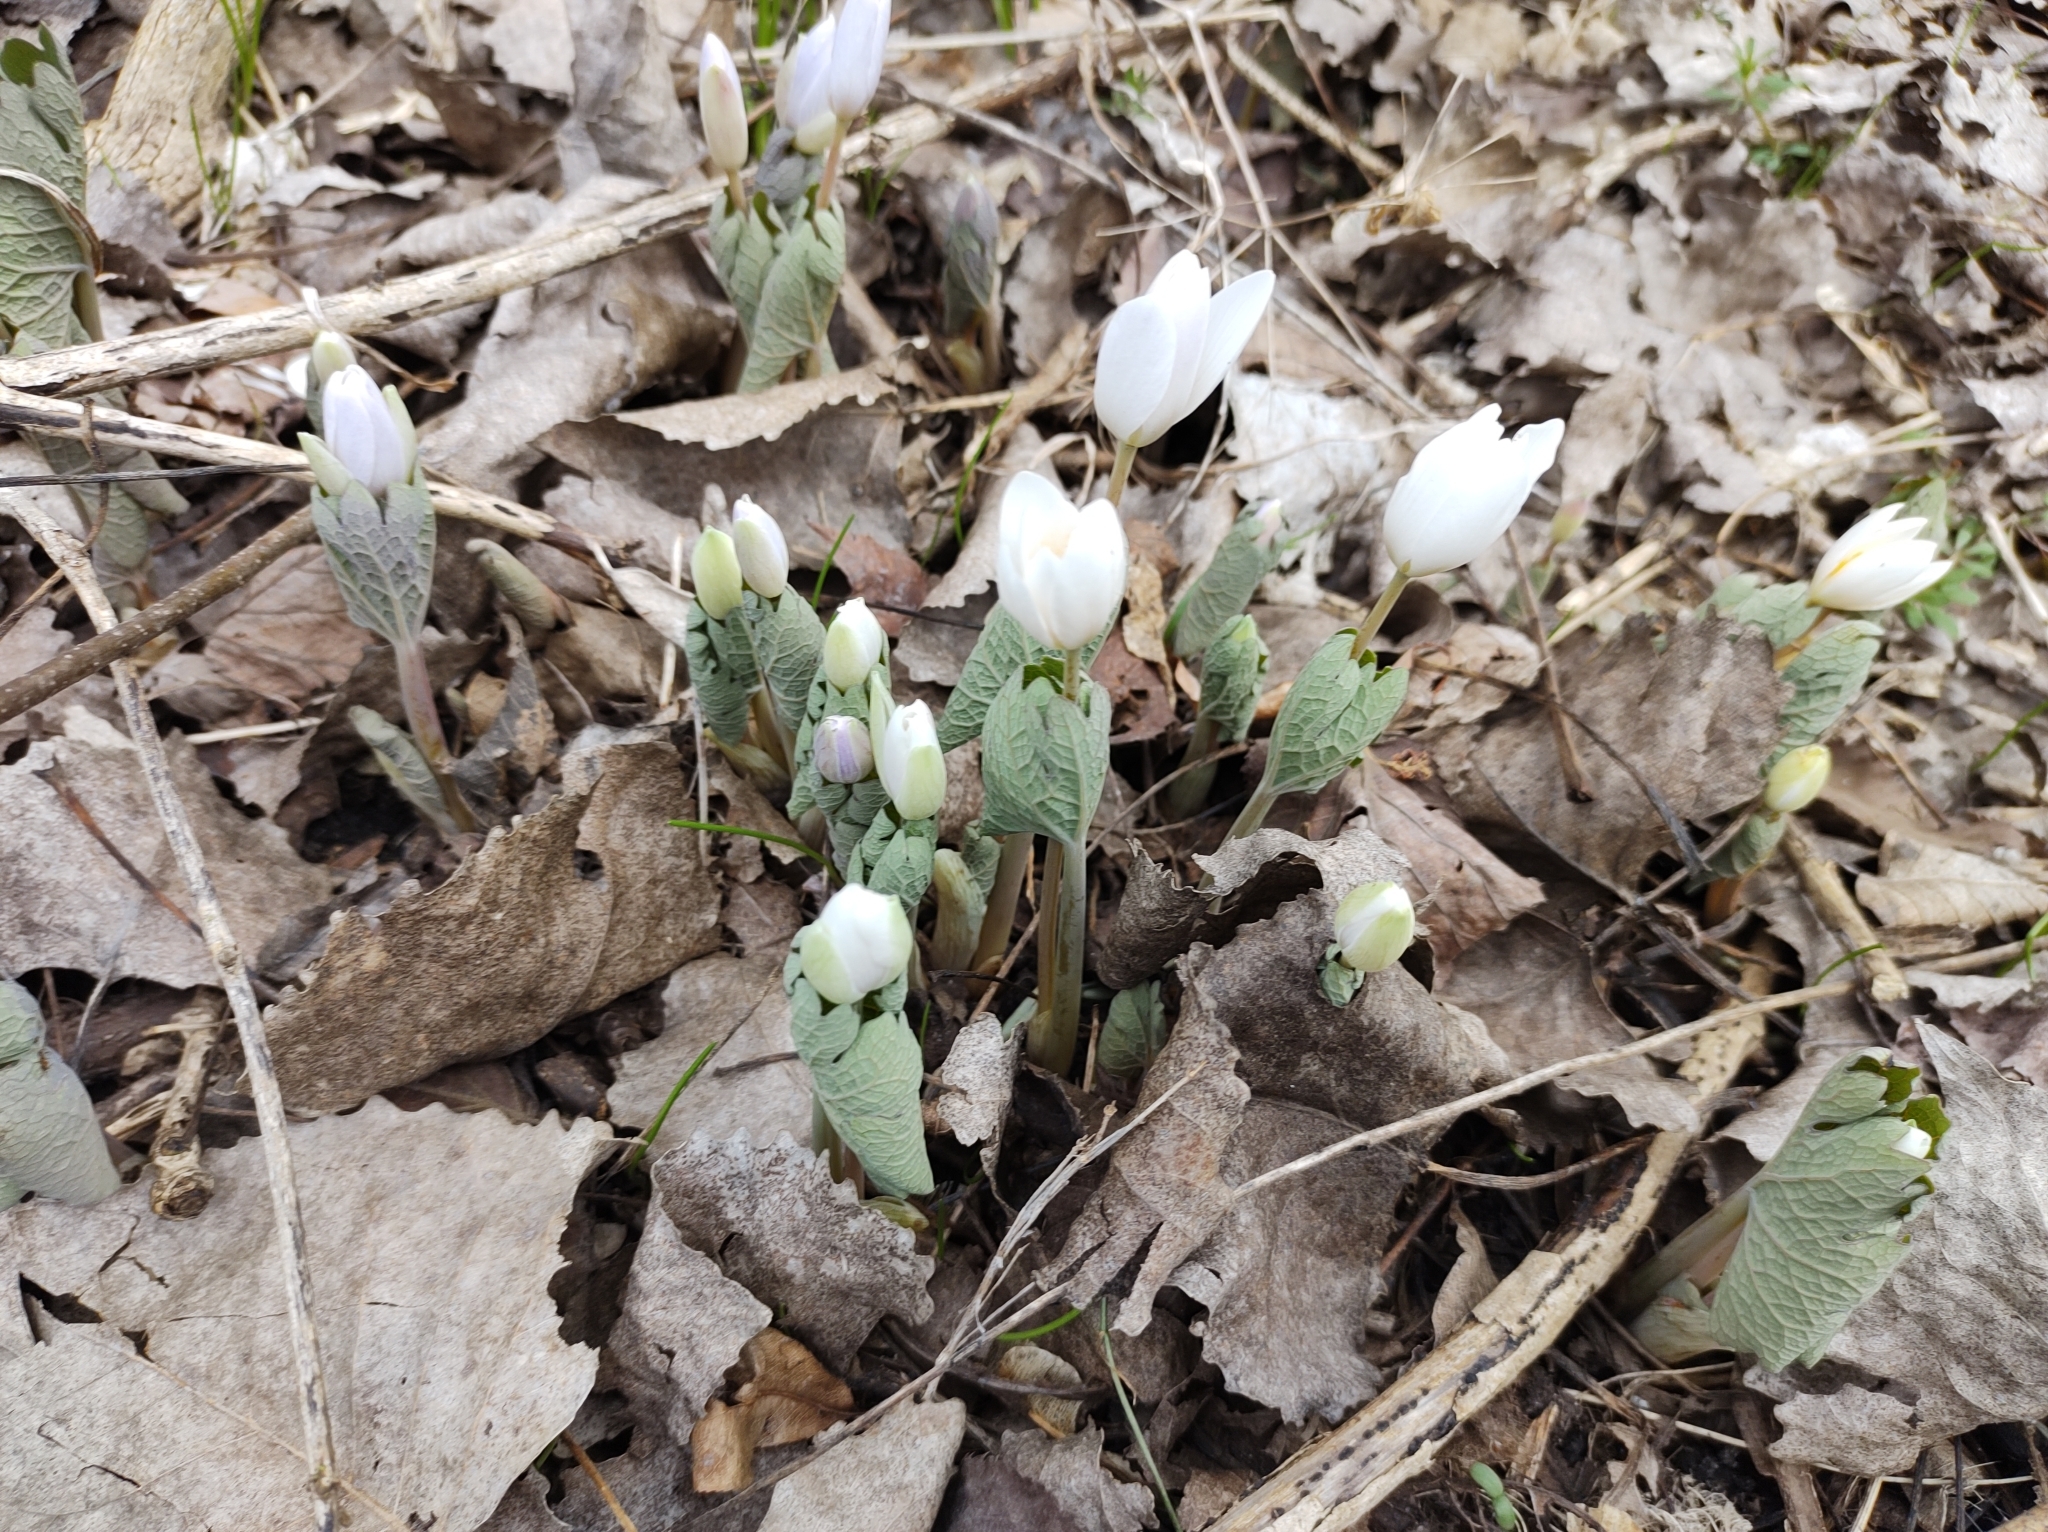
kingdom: Plantae
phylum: Tracheophyta
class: Magnoliopsida
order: Ranunculales
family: Papaveraceae
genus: Sanguinaria
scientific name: Sanguinaria canadensis
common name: Bloodroot
